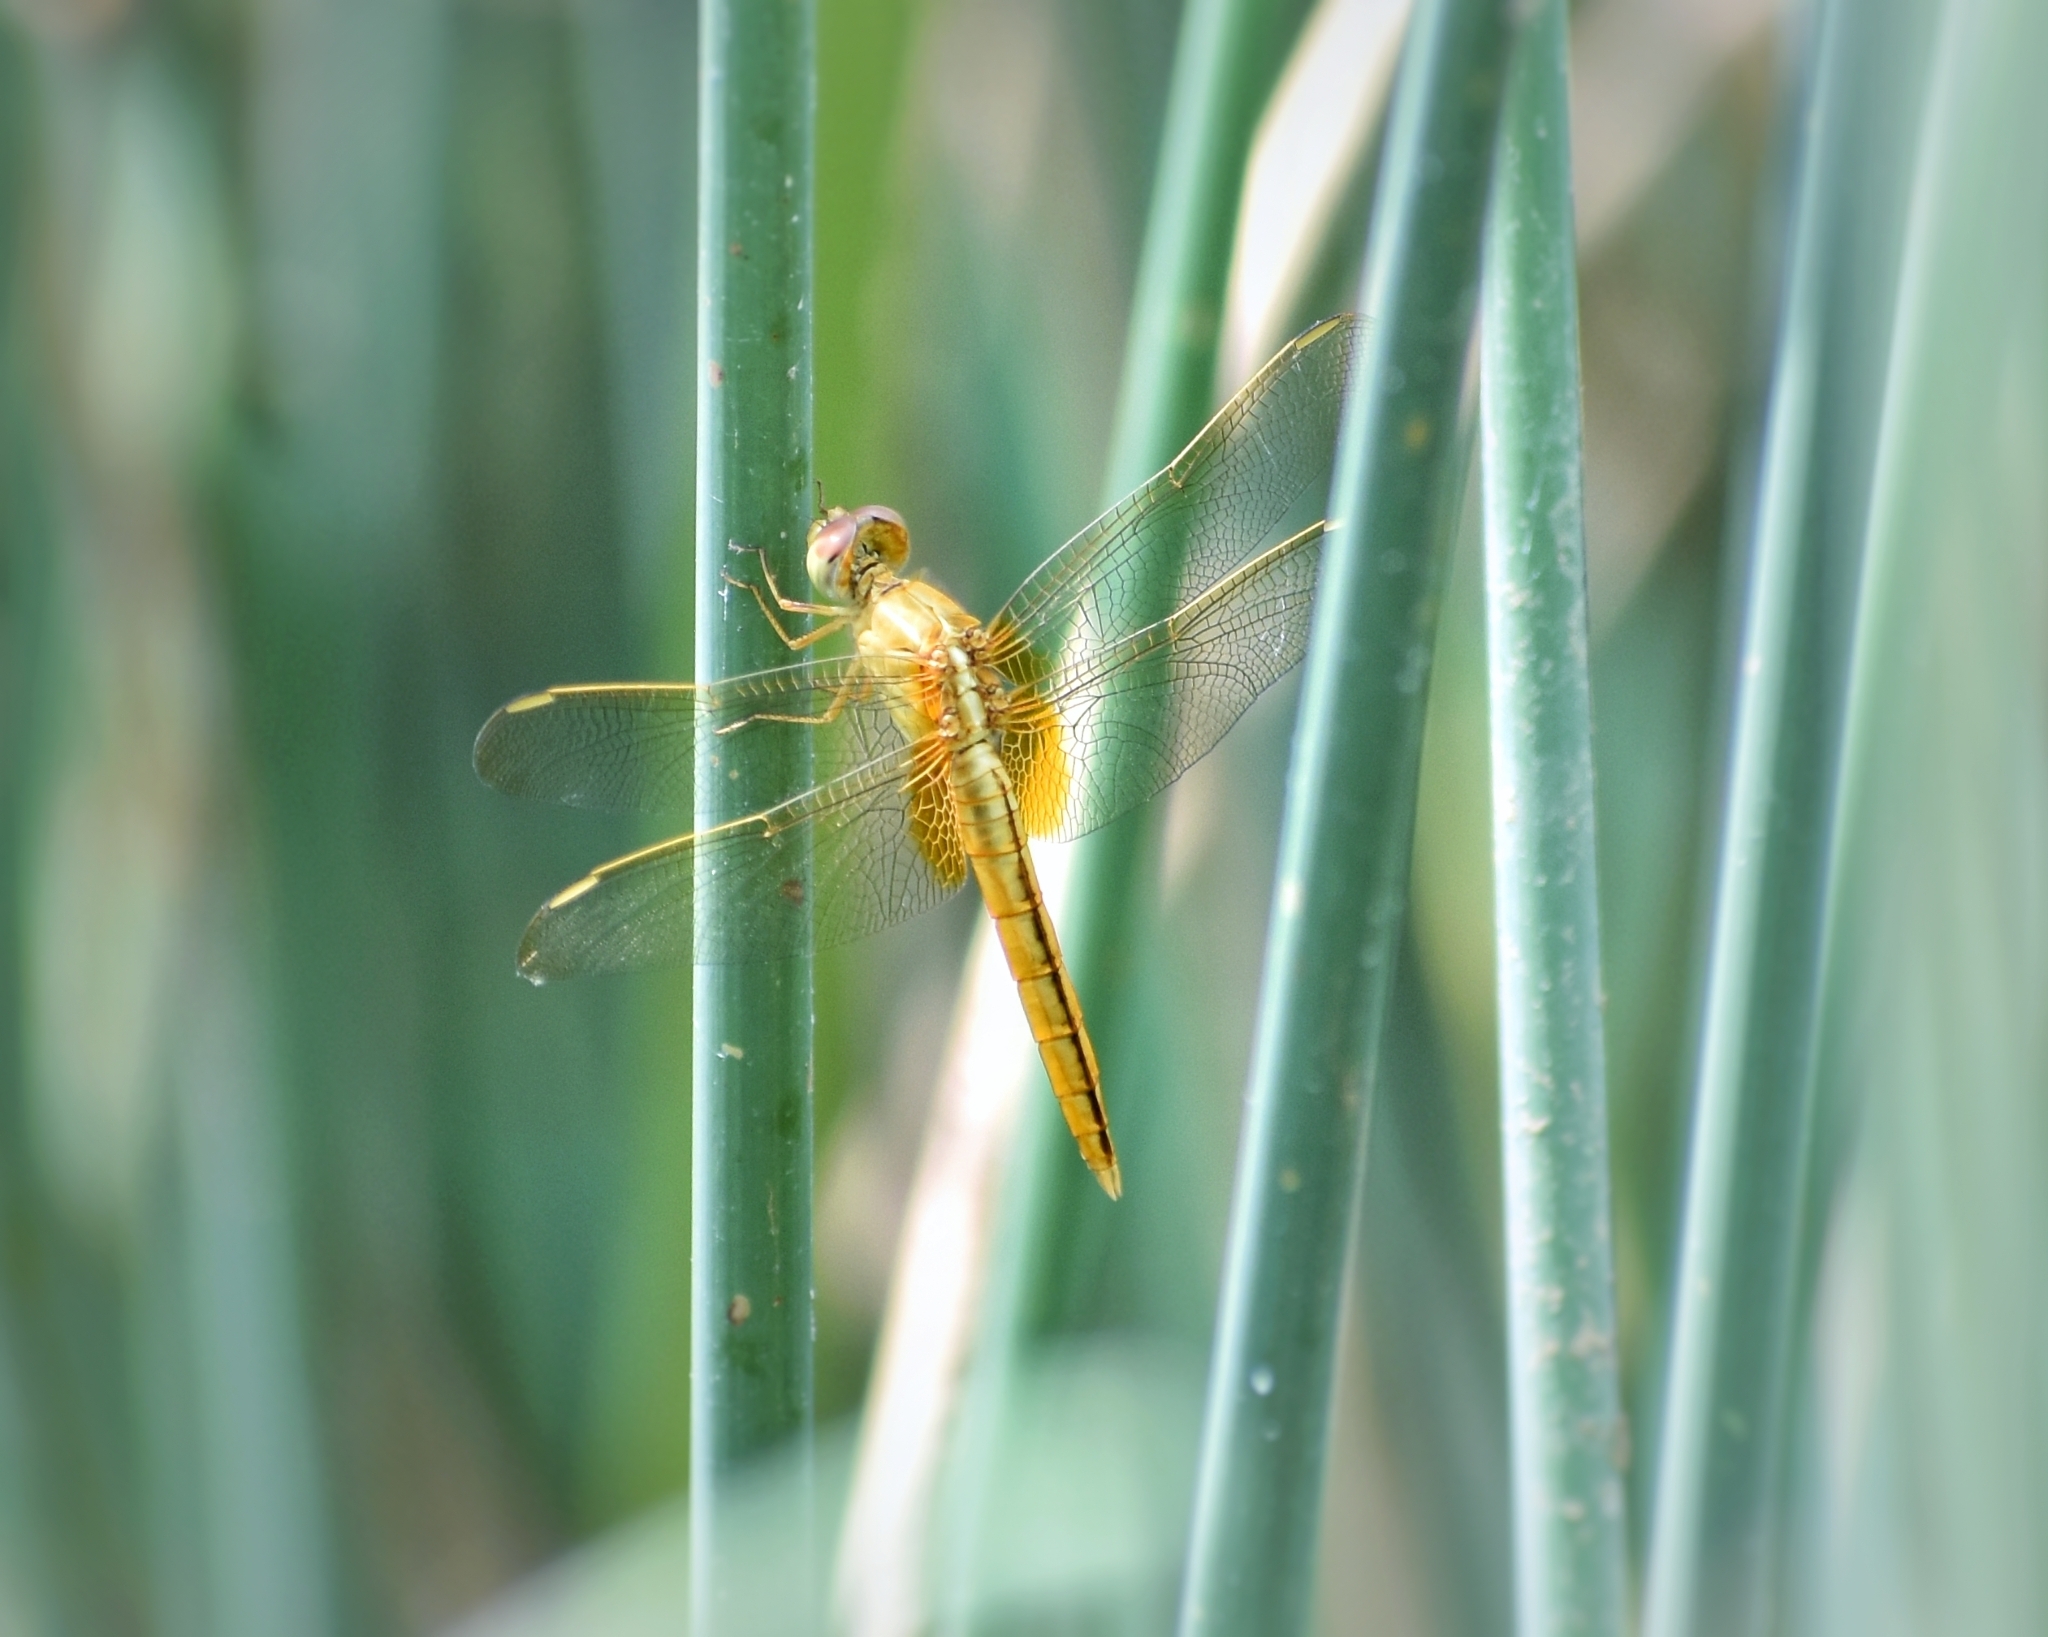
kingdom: Animalia
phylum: Arthropoda
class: Insecta
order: Odonata
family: Libellulidae
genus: Crocothemis
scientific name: Crocothemis servilia
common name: Scarlet skimmer
